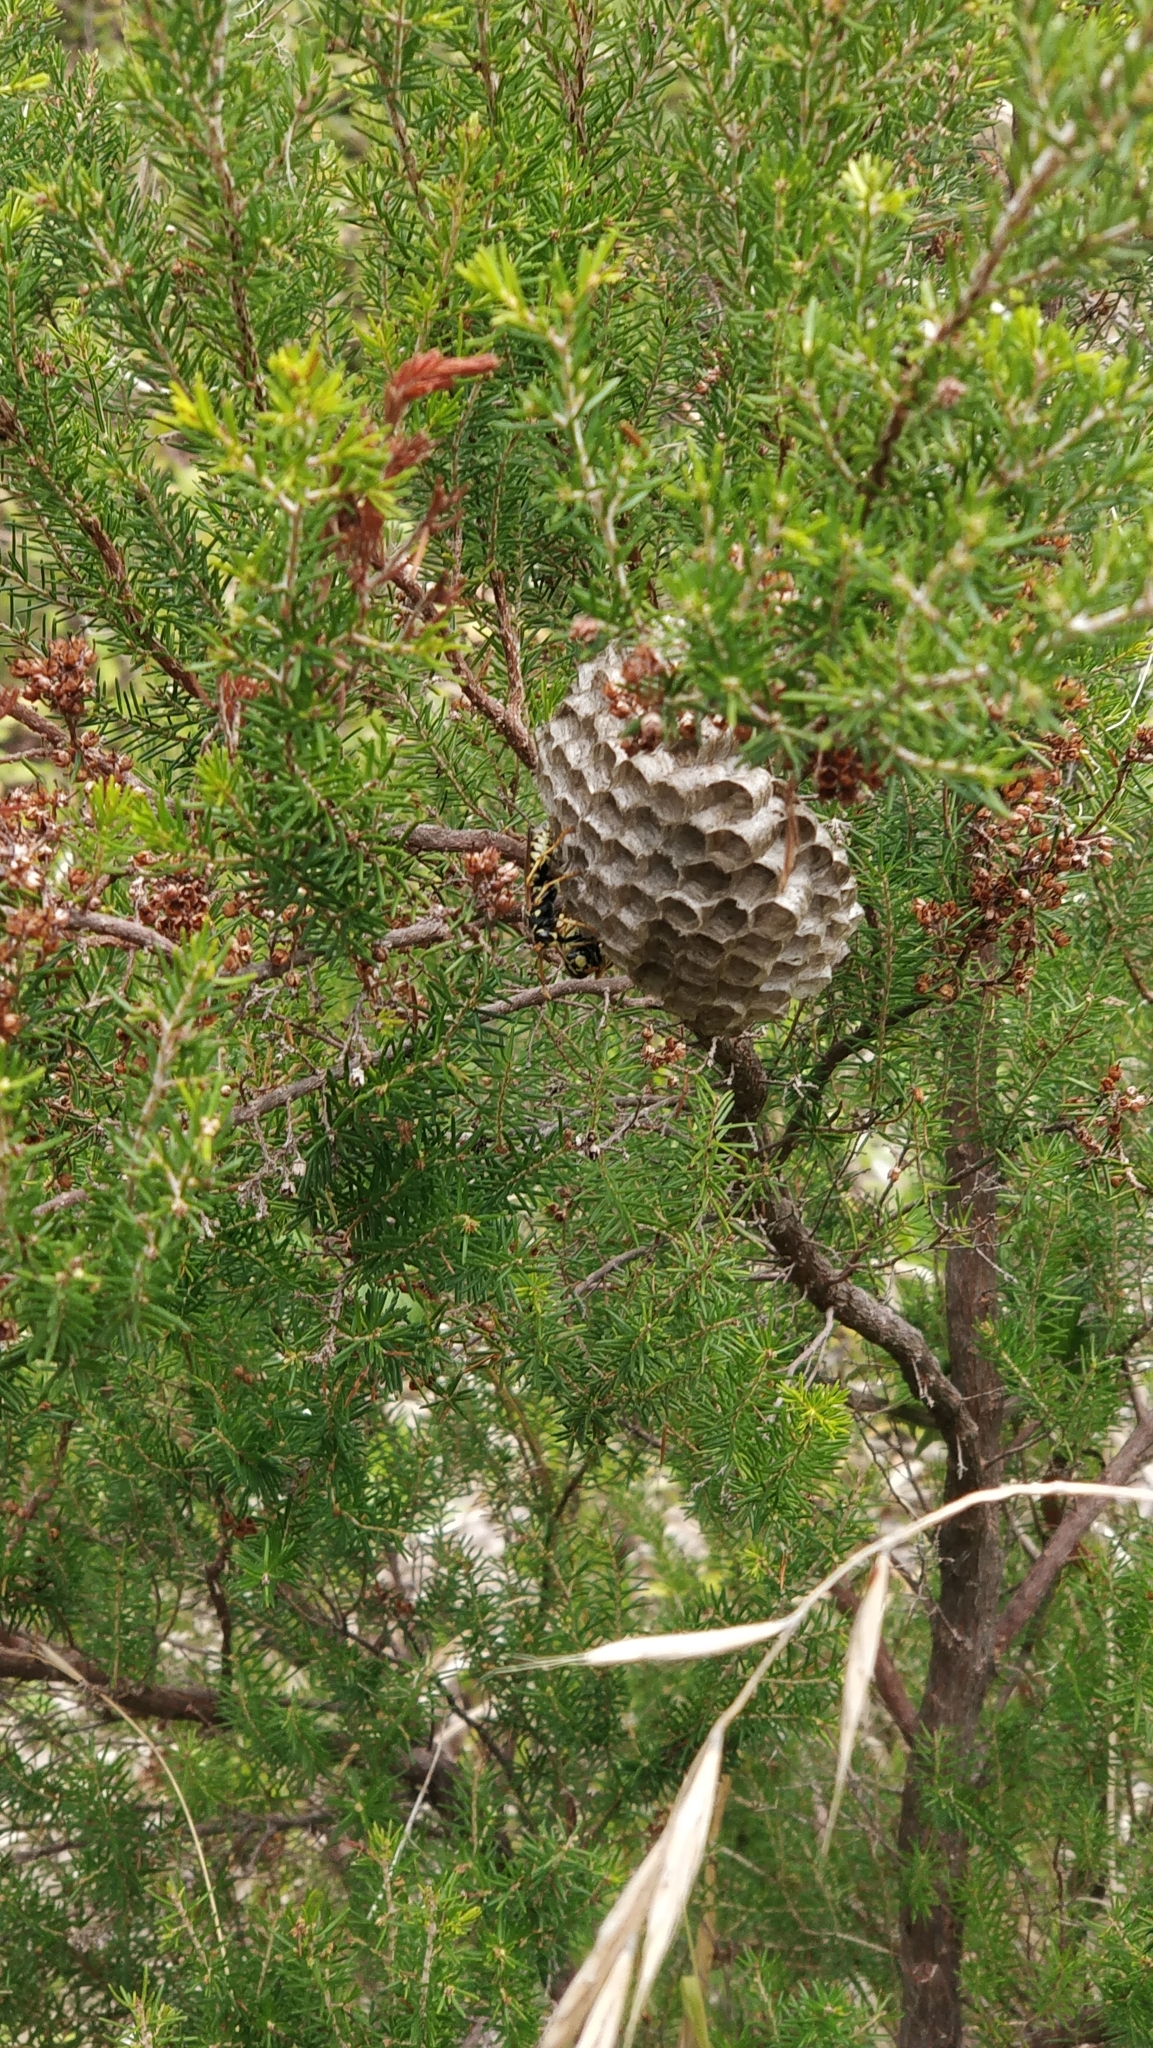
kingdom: Animalia
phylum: Arthropoda
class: Insecta
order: Hymenoptera
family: Eumenidae
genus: Polistes
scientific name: Polistes dominula
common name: Paper wasp
